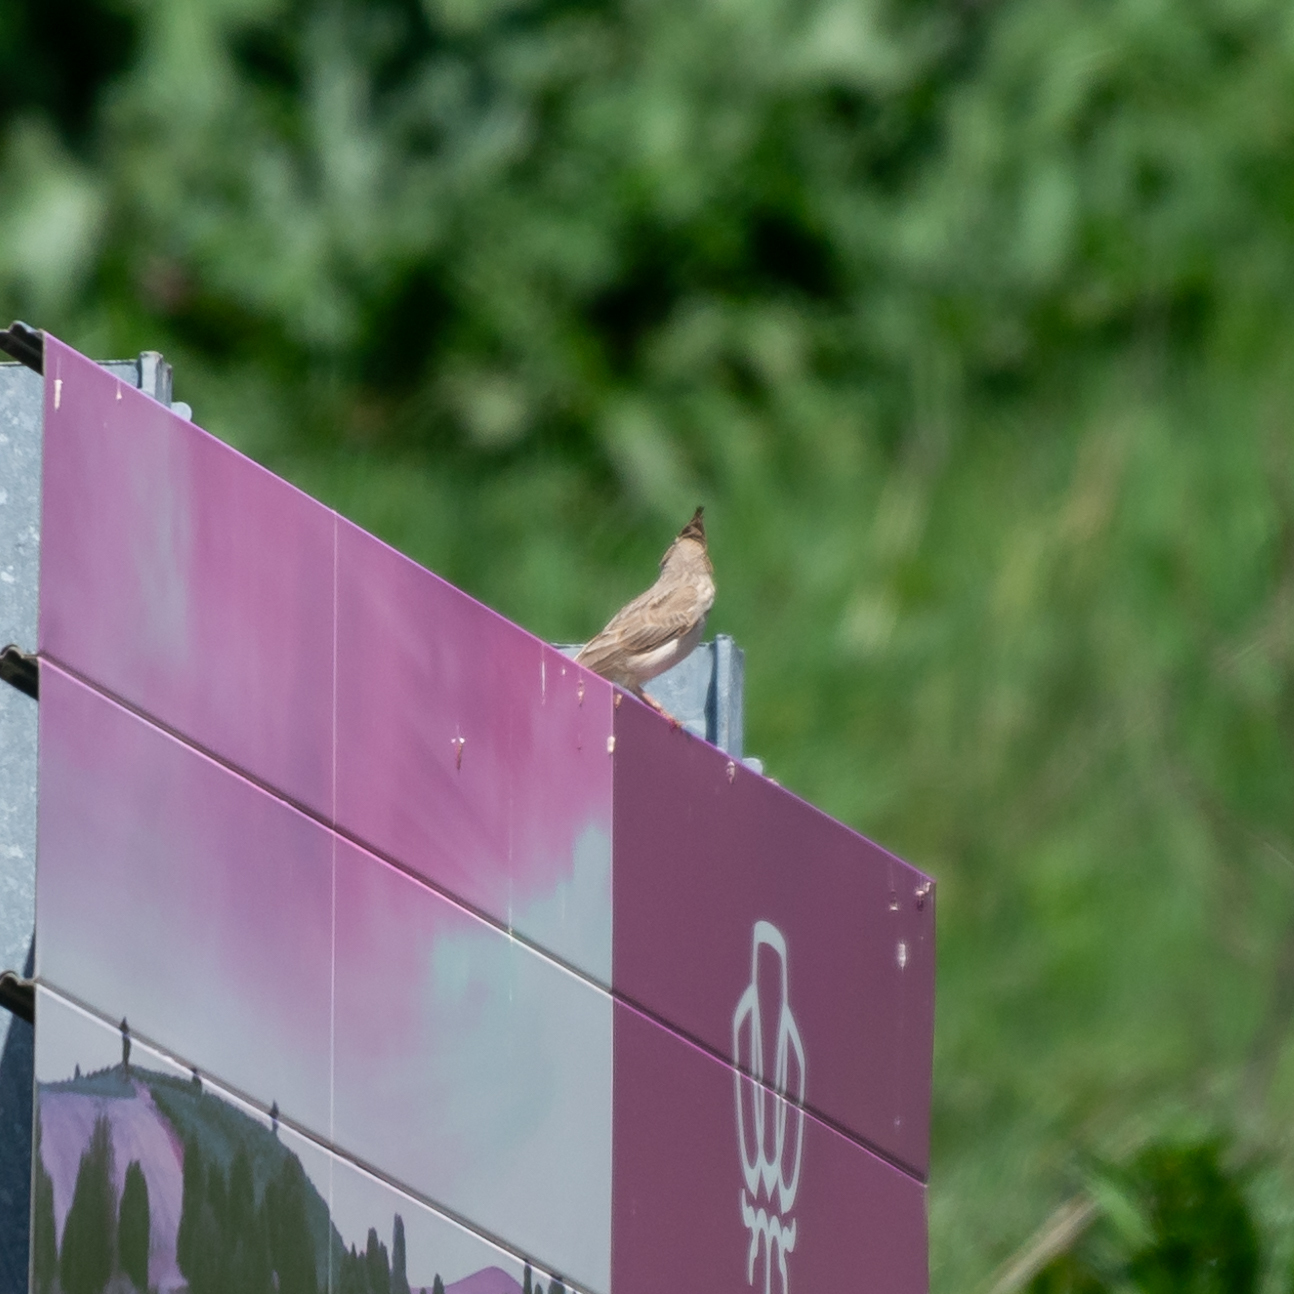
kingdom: Animalia
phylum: Chordata
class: Aves
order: Passeriformes
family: Alaudidae
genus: Galerida
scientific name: Galerida cristata
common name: Crested lark
